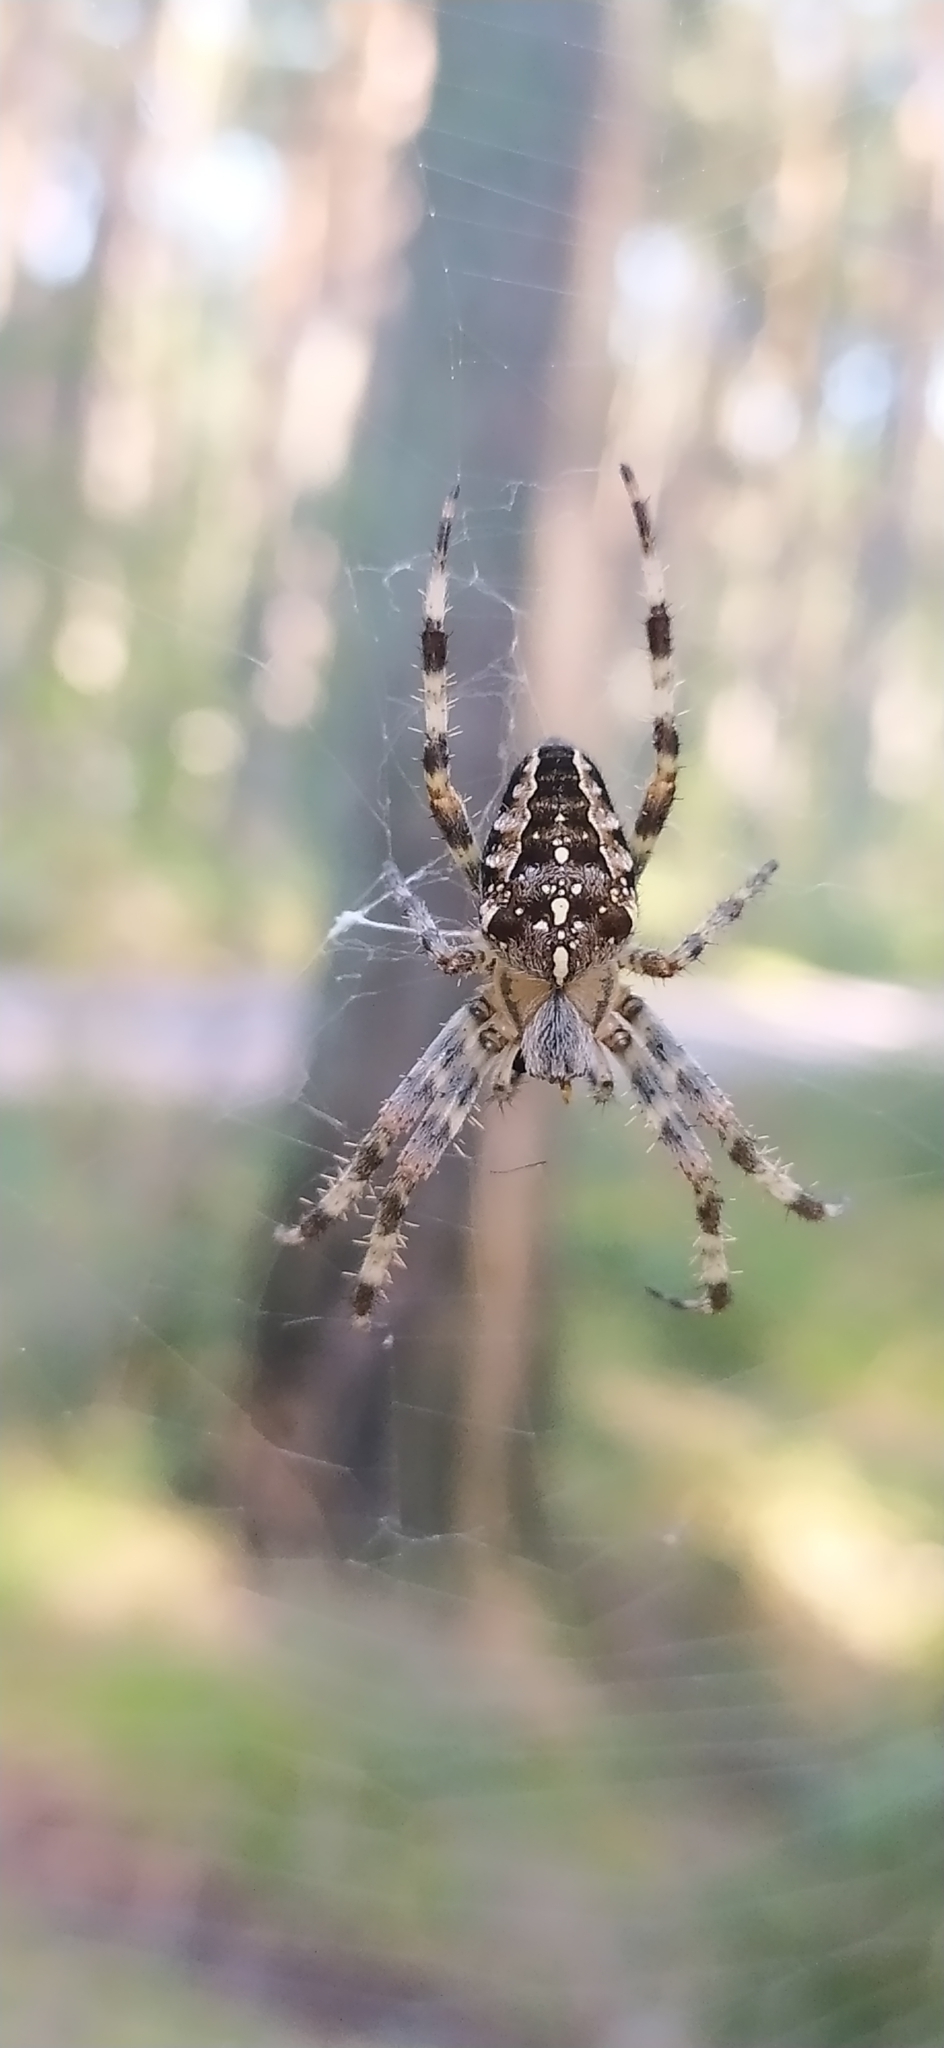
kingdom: Animalia
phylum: Arthropoda
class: Arachnida
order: Araneae
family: Araneidae
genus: Araneus
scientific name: Araneus diadematus
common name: Cross orbweaver
